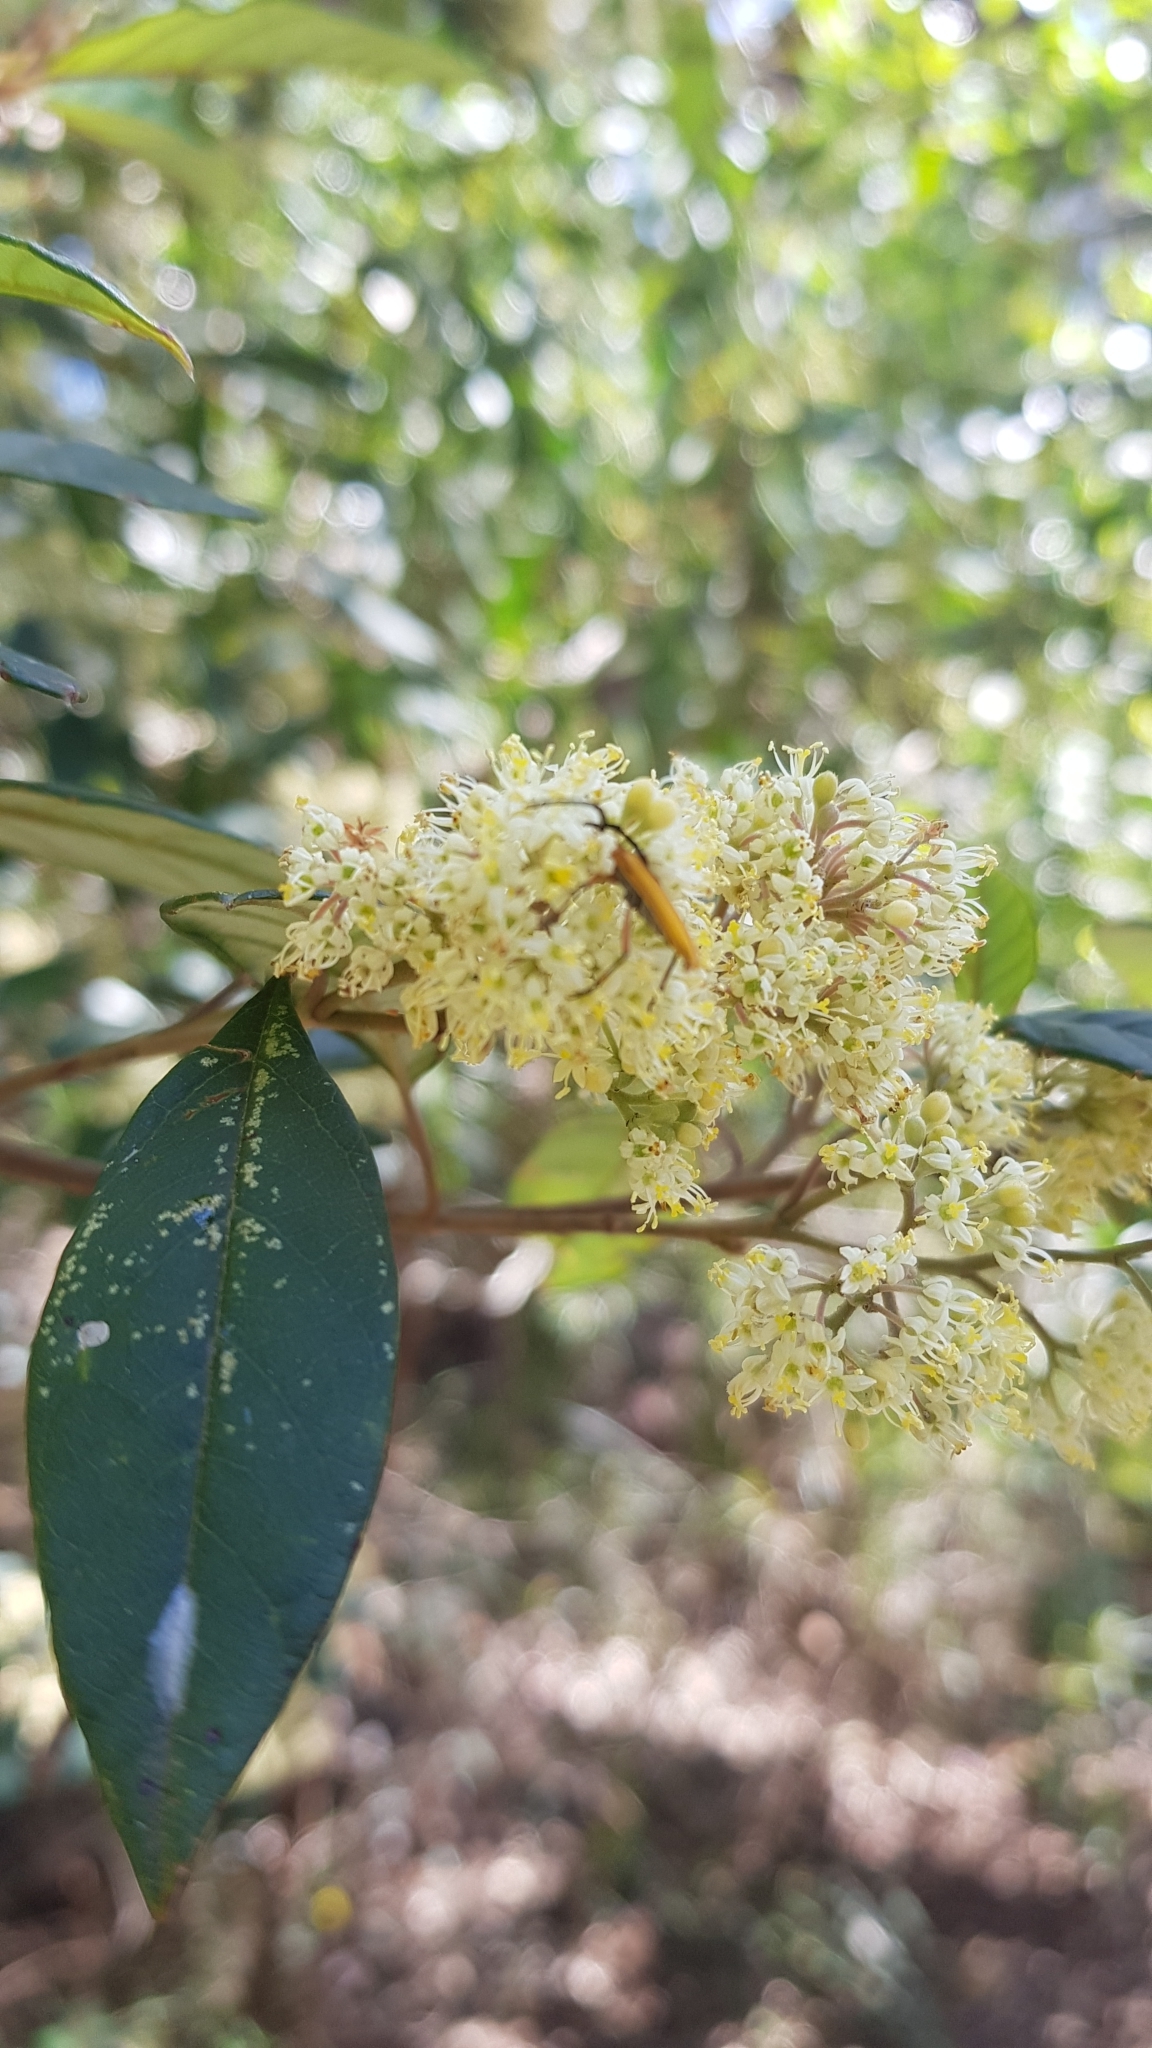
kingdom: Animalia
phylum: Arthropoda
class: Insecta
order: Coleoptera
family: Cerambycidae
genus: Stenoderus
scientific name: Stenoderus concolor
